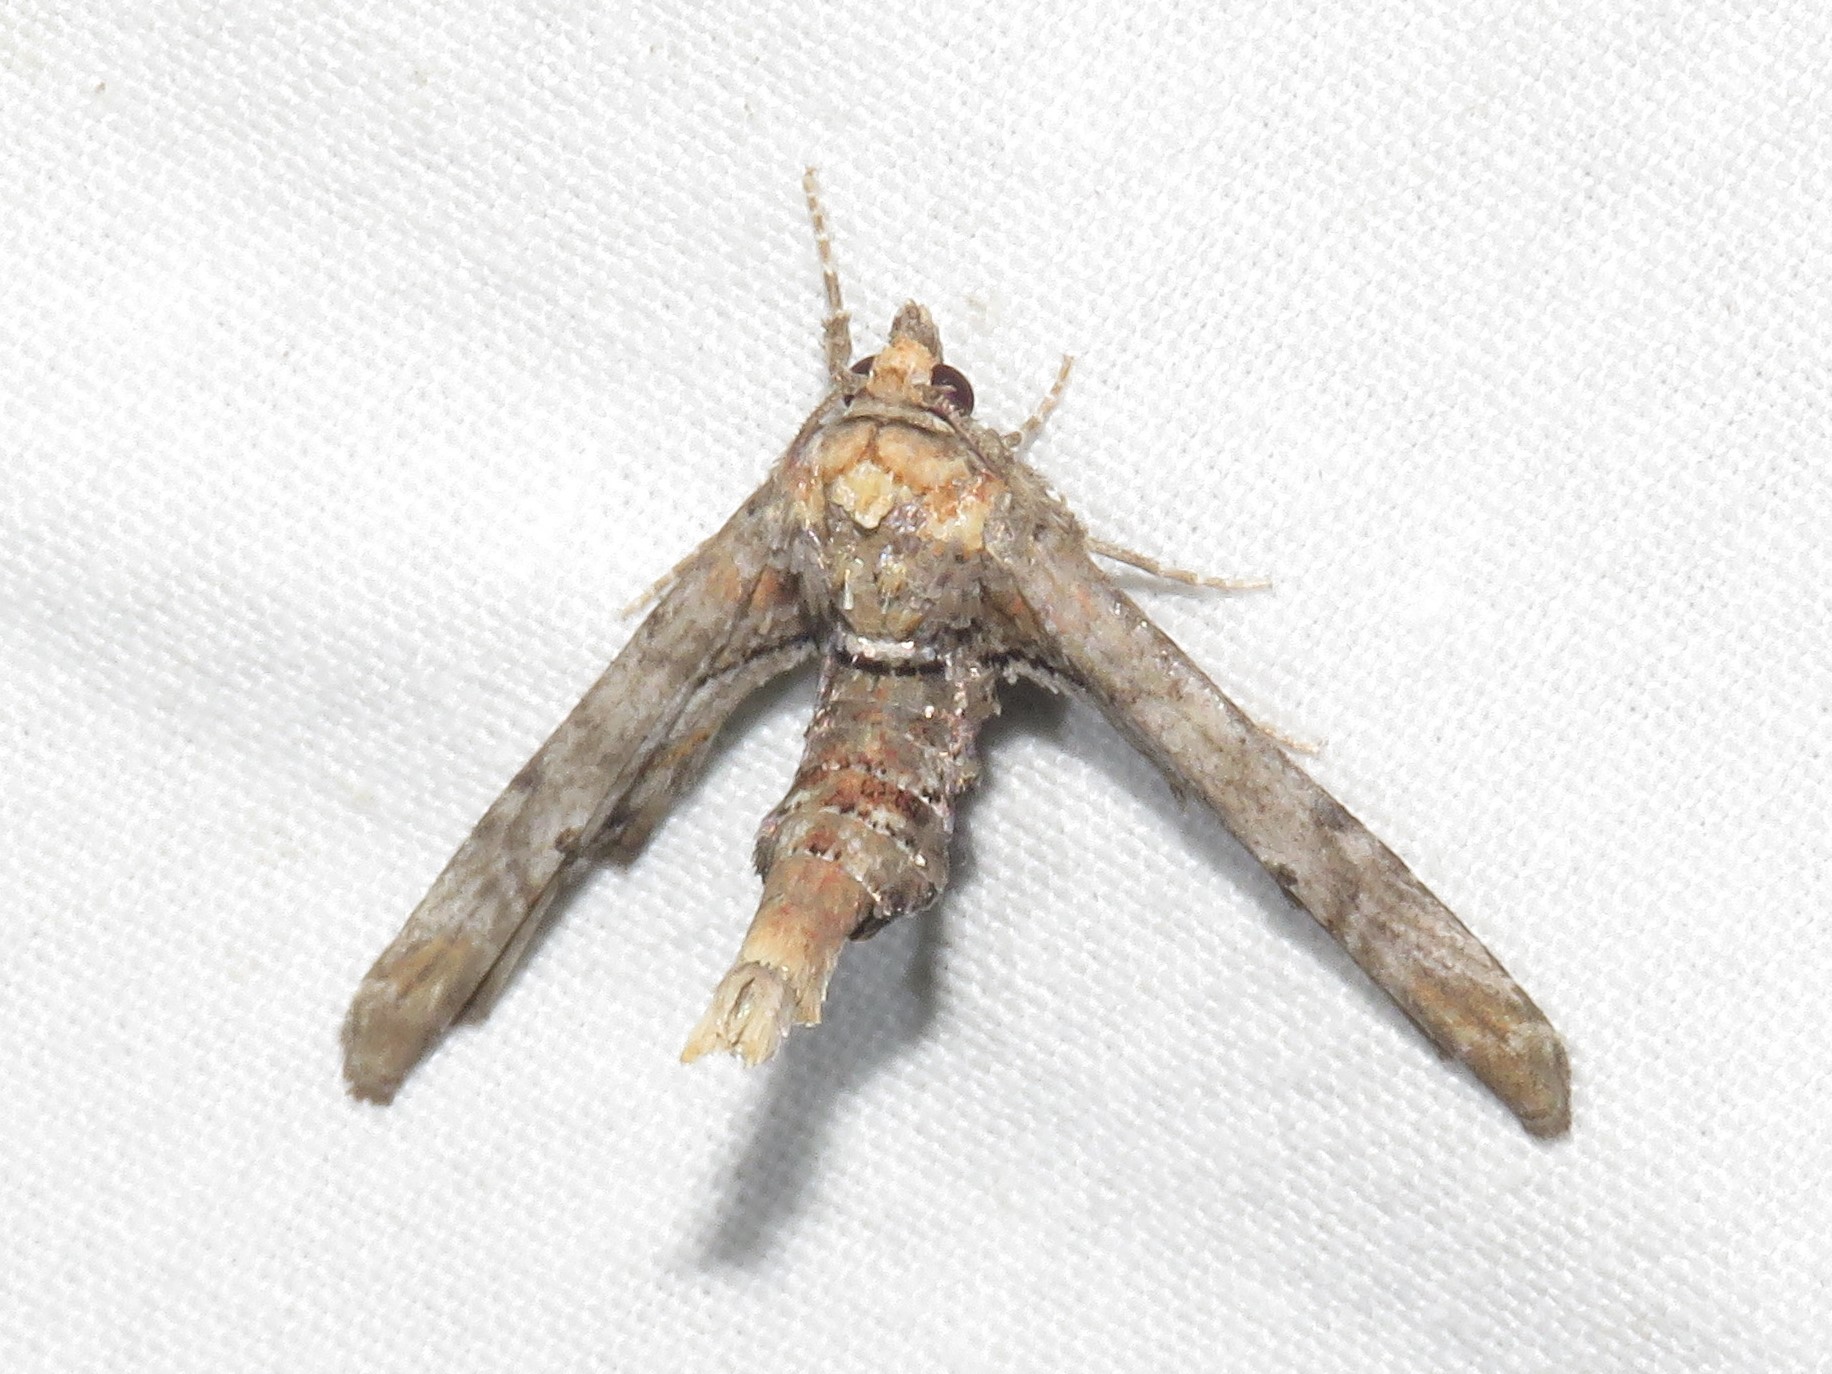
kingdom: Animalia
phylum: Arthropoda
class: Insecta
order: Lepidoptera
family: Euteliidae
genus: Marathyssa
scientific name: Marathyssa inficita
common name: Dark marathyssa moth
